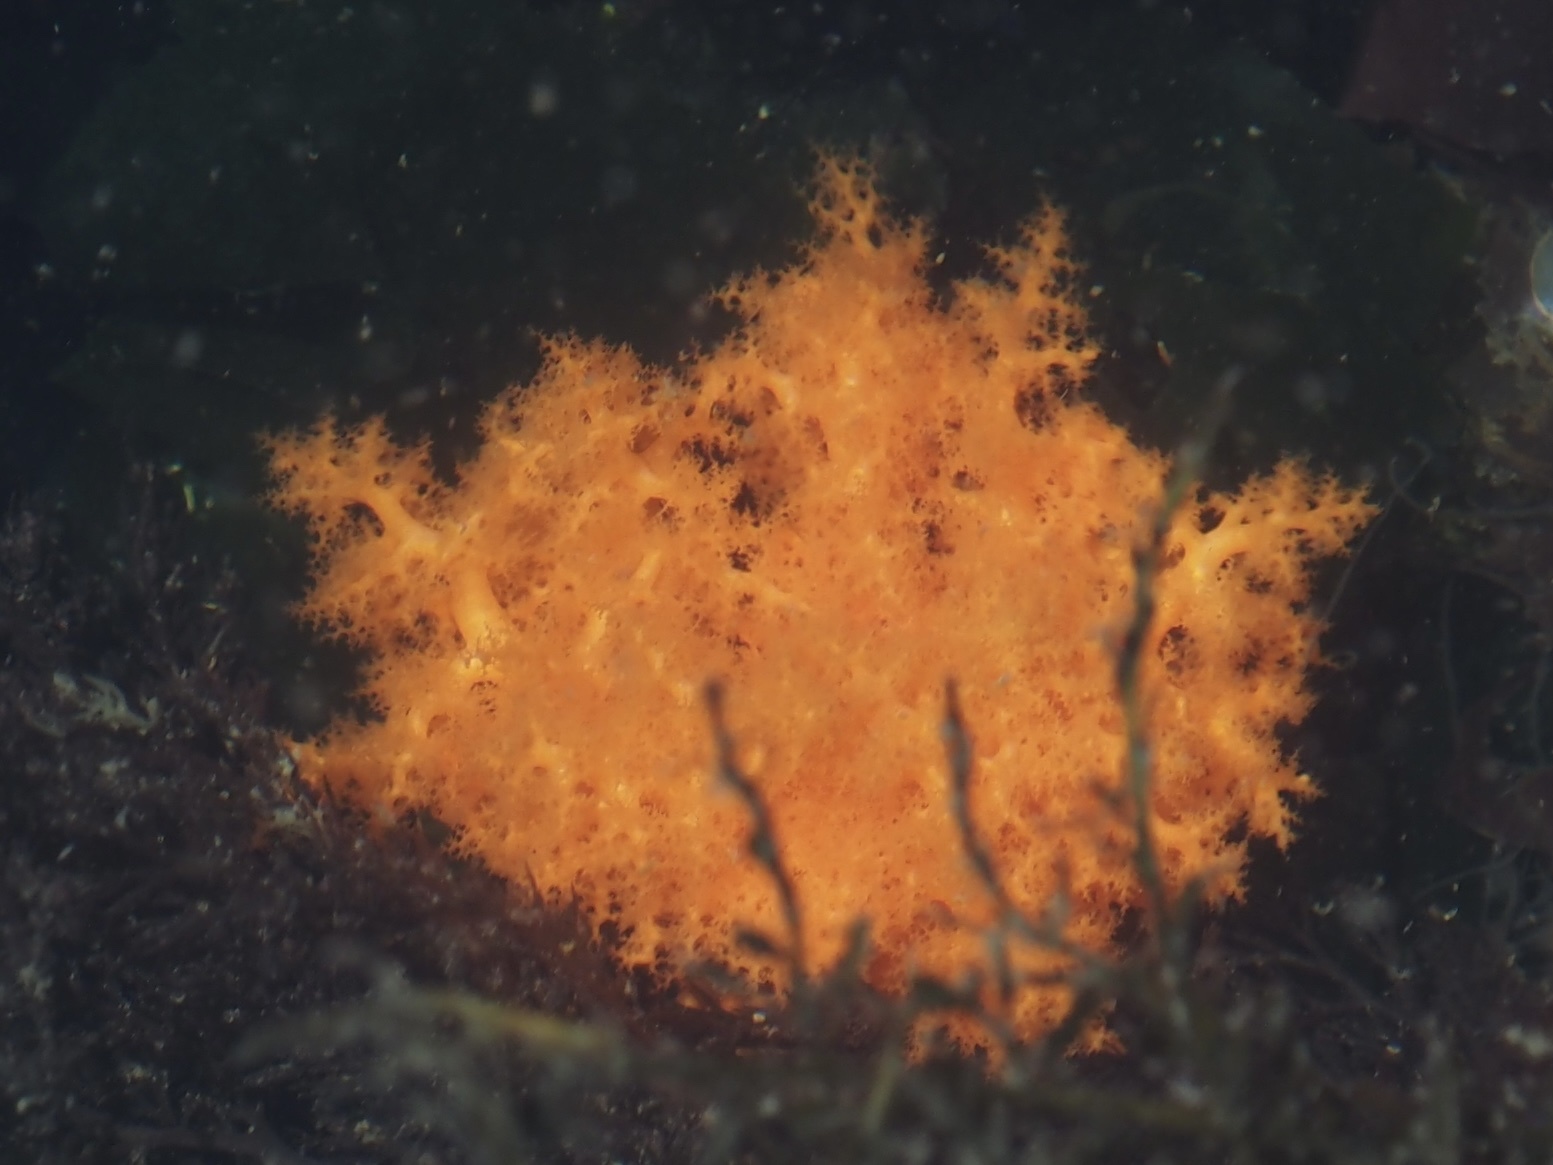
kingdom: Animalia
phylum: Echinodermata
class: Holothuroidea
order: Dendrochirotida
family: Cucumariidae
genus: Cucumaria
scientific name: Cucumaria miniata
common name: Orange sea cucumber
